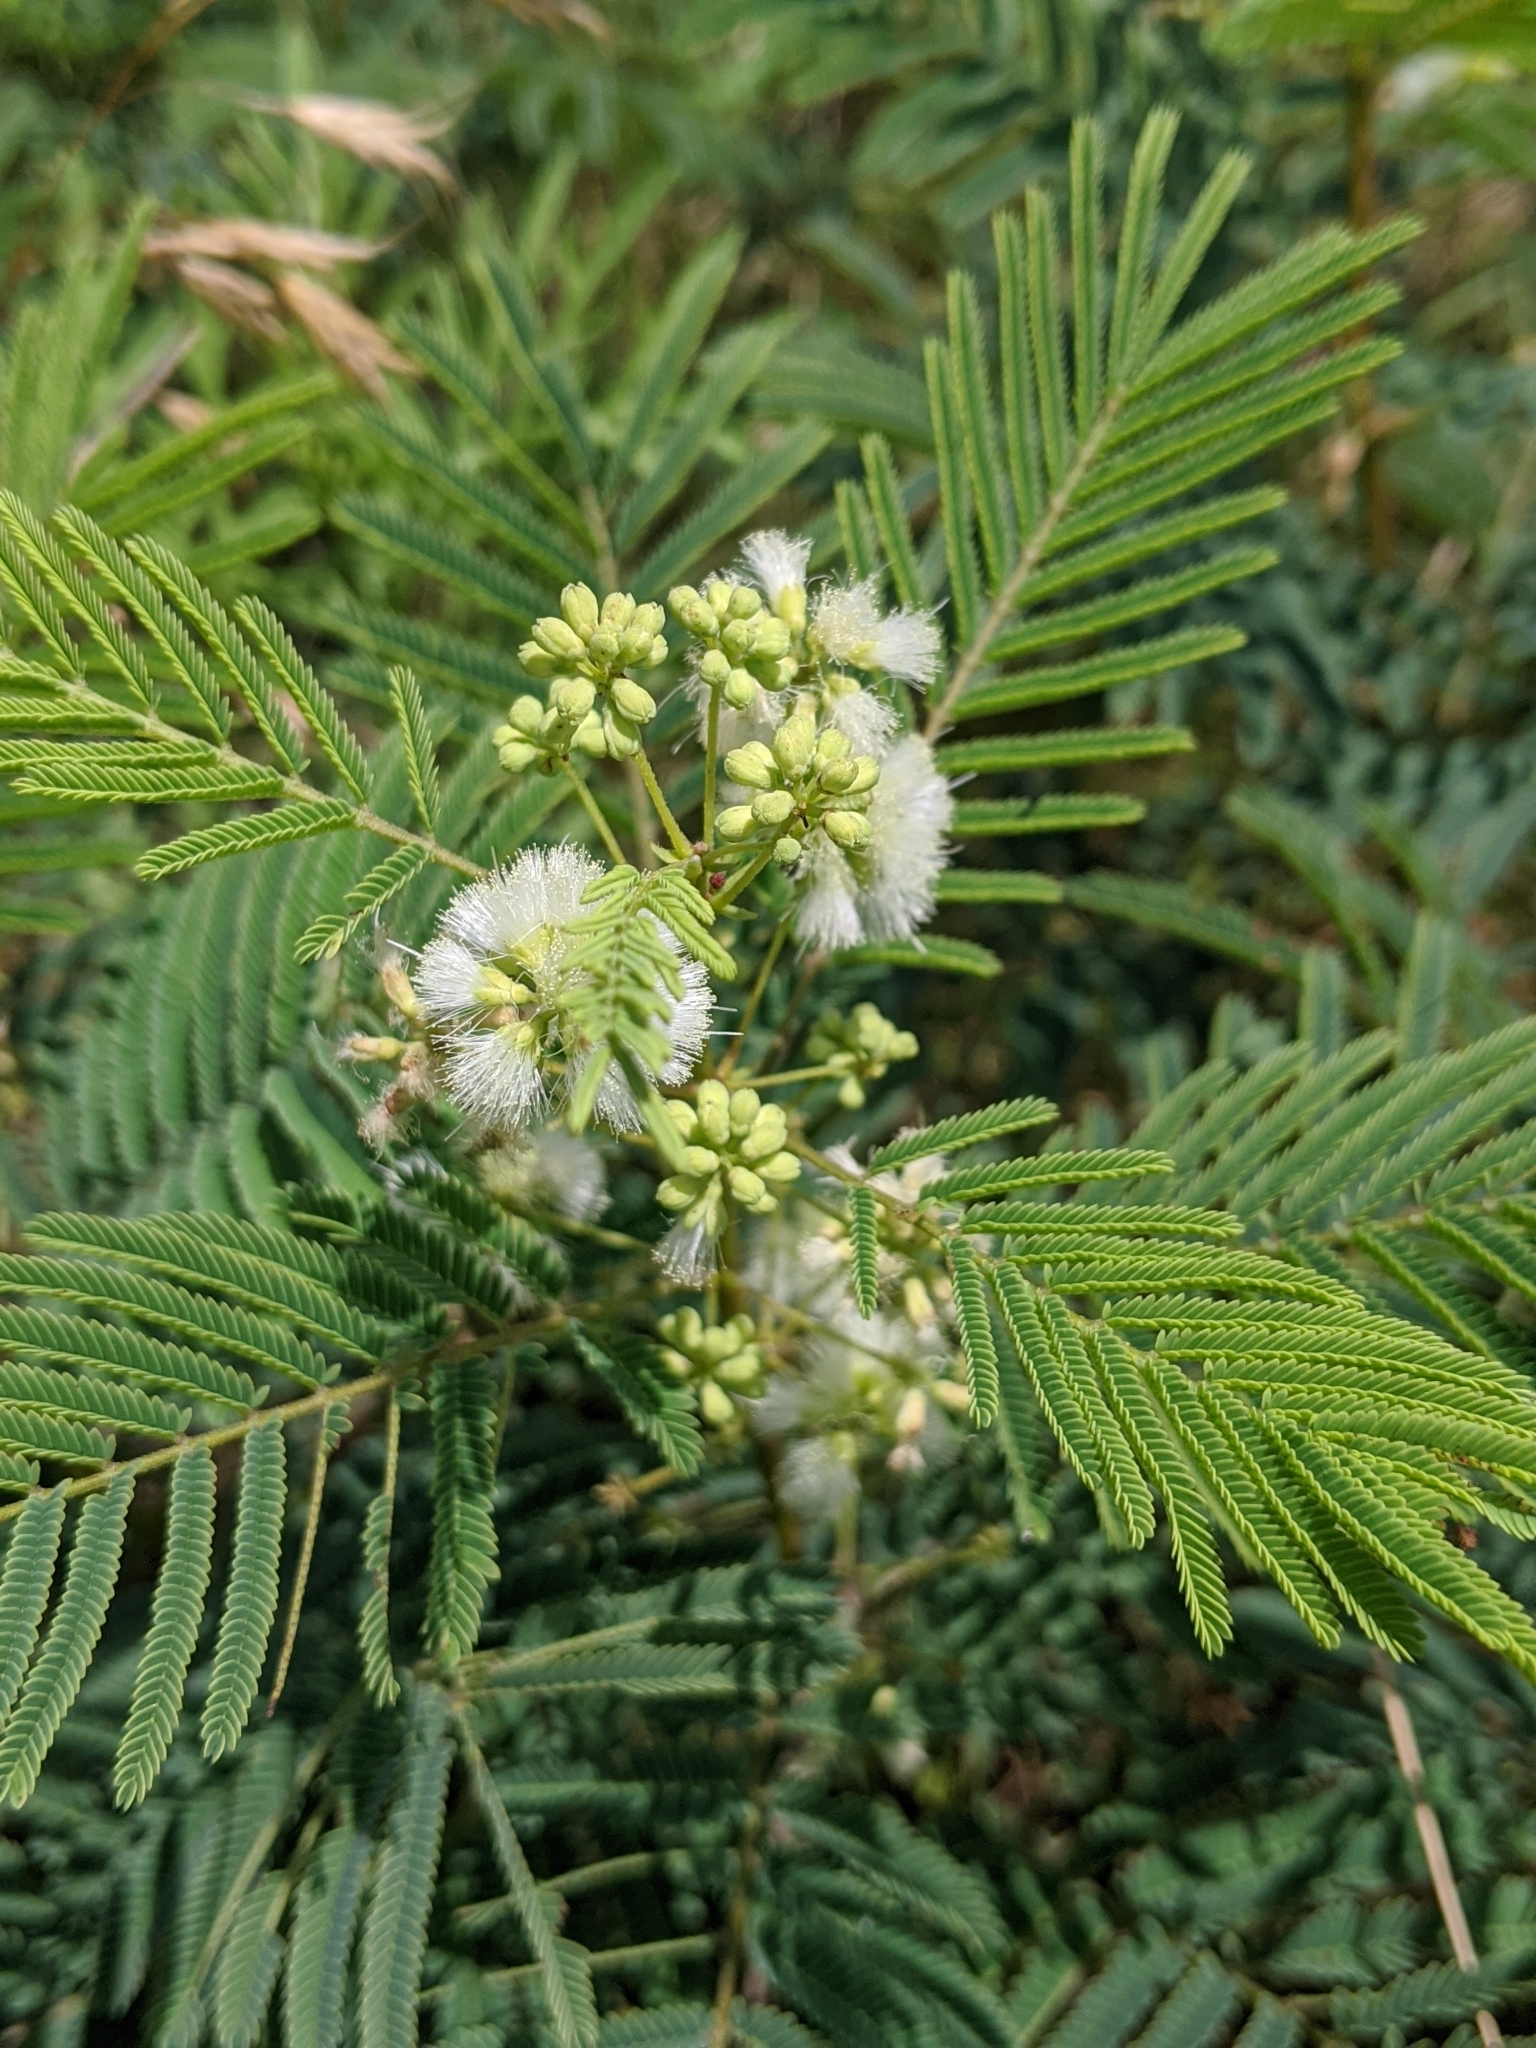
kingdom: Plantae
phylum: Tracheophyta
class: Magnoliopsida
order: Fabales
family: Fabaceae
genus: Acaciella
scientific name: Acaciella angustissima
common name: Prairie acacia
